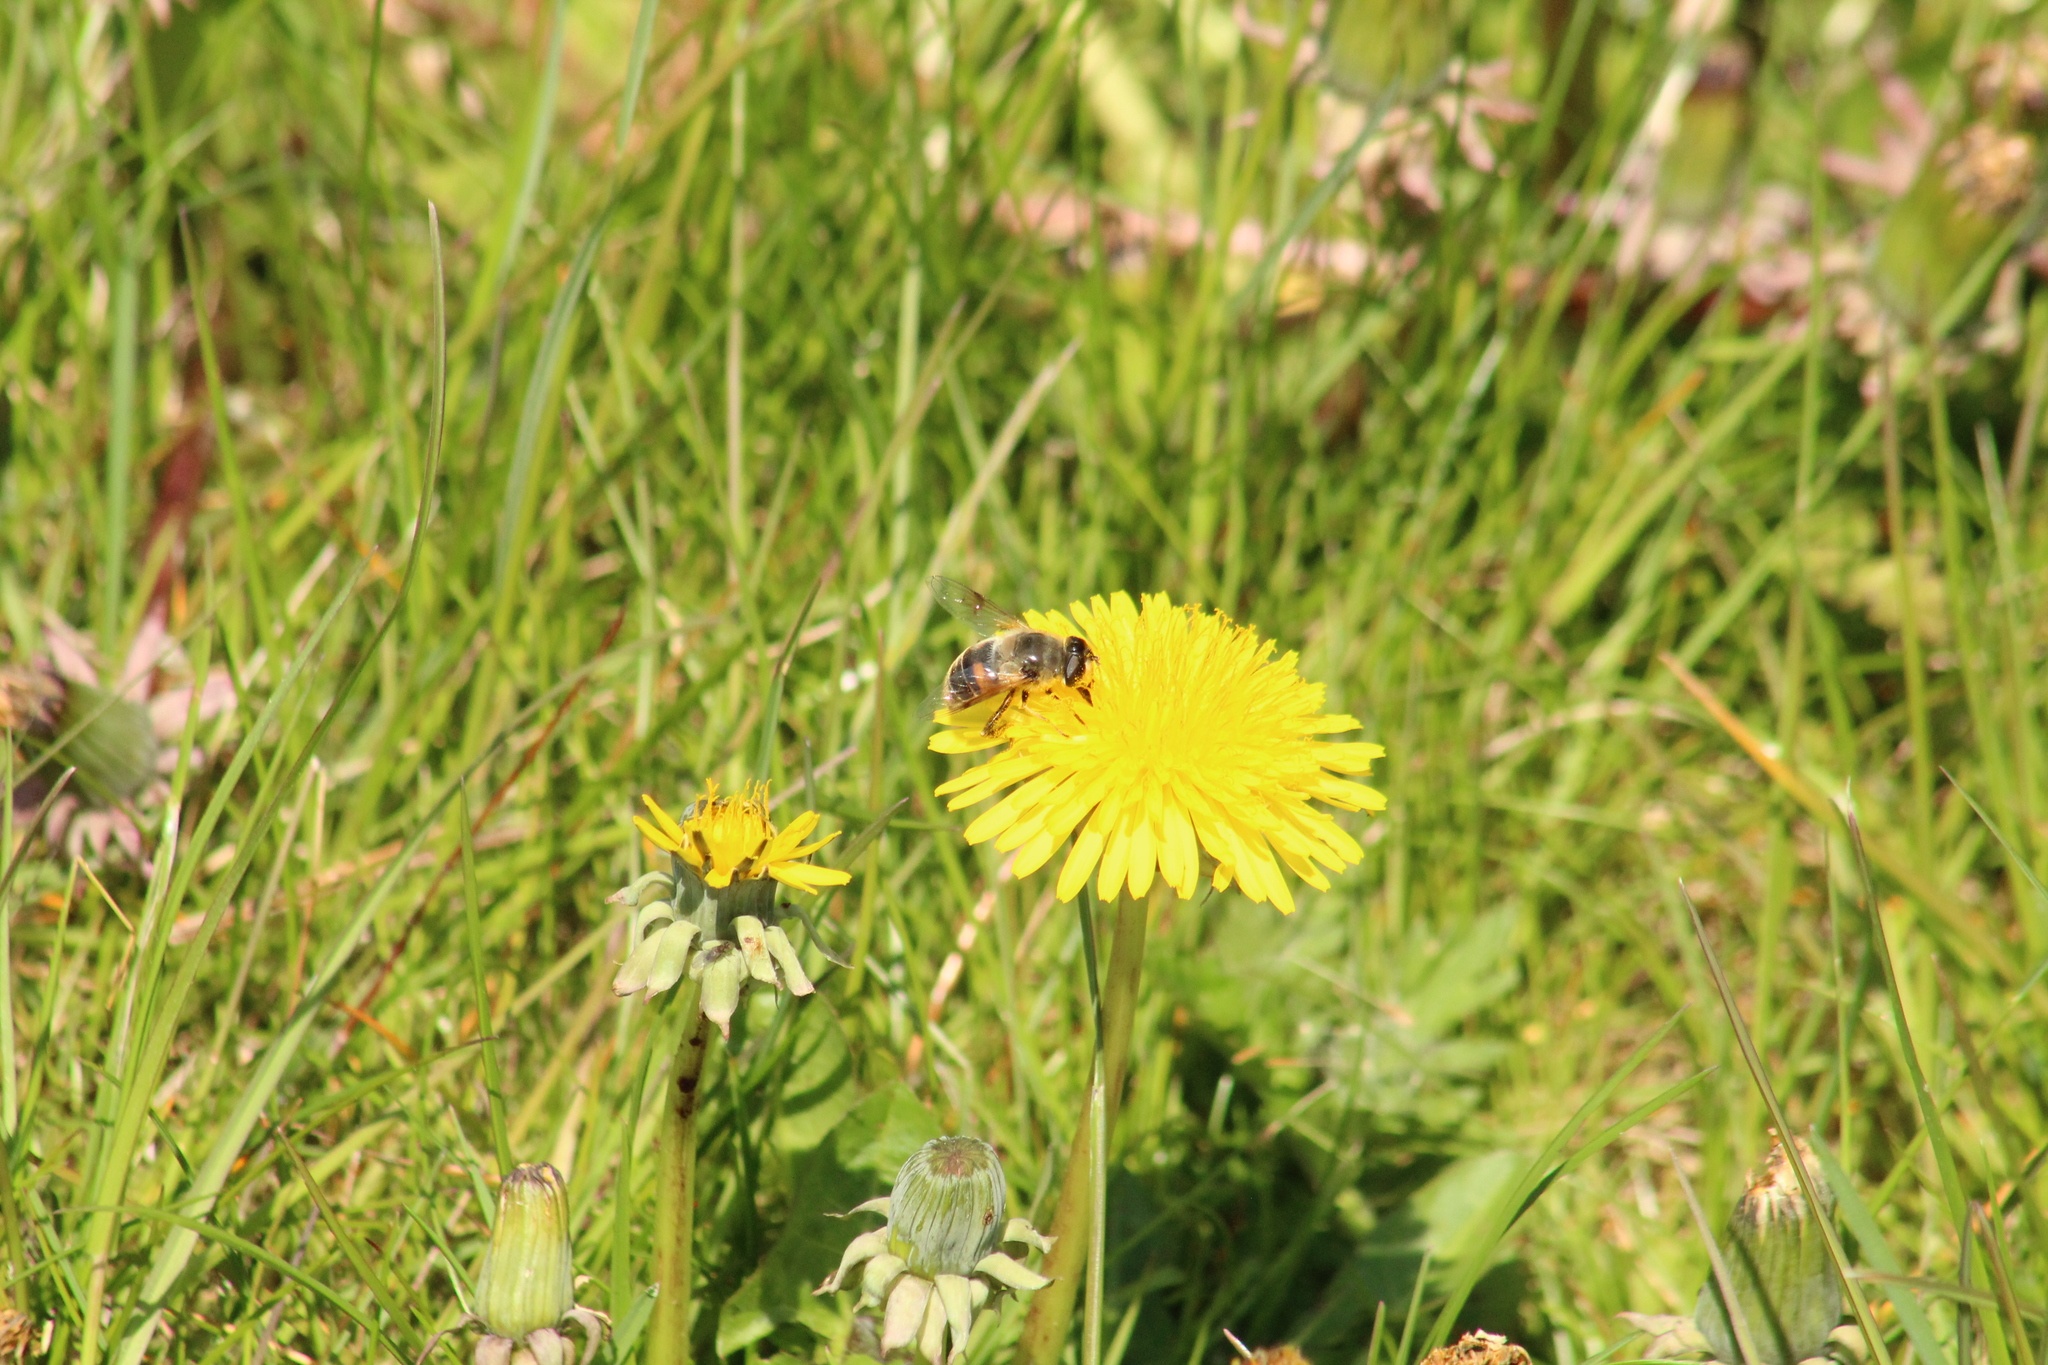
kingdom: Animalia
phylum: Arthropoda
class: Insecta
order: Diptera
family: Syrphidae
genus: Eristalis
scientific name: Eristalis tenax
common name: Drone fly
